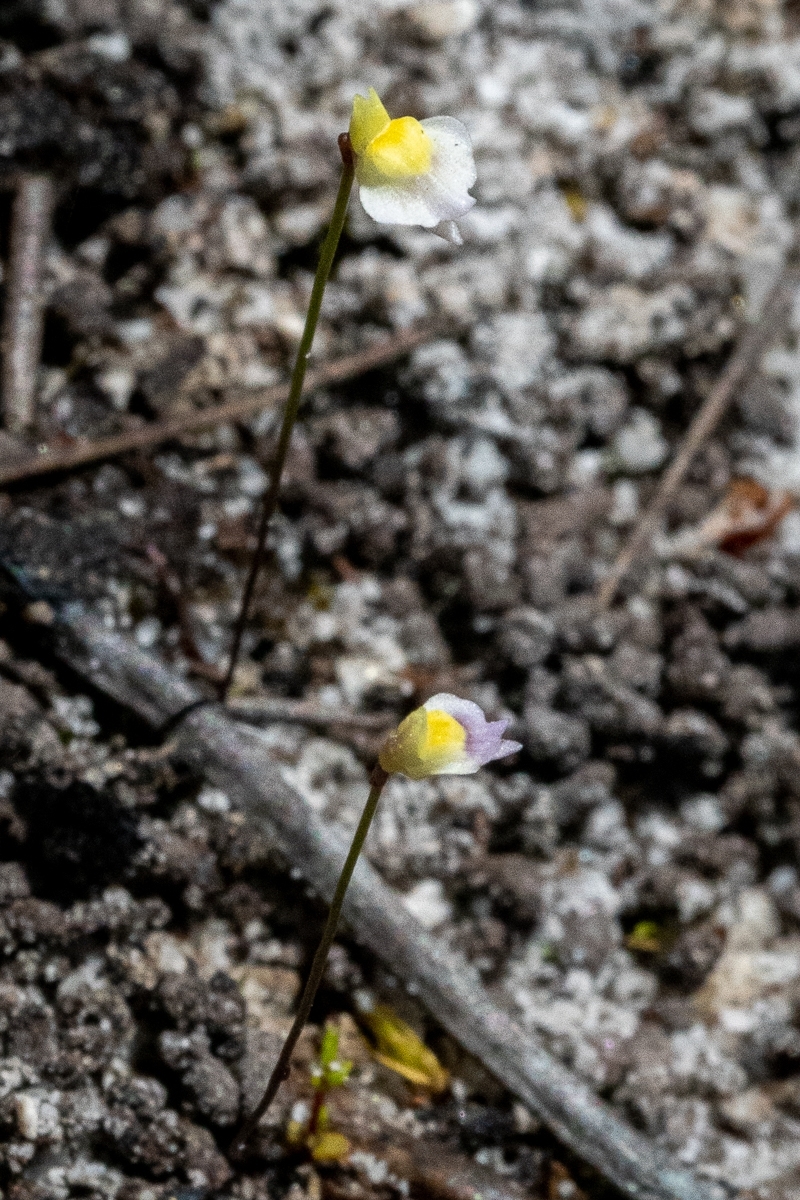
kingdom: Plantae
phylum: Tracheophyta
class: Magnoliopsida
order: Lamiales
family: Lentibulariaceae
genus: Utricularia
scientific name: Utricularia bisquamata
